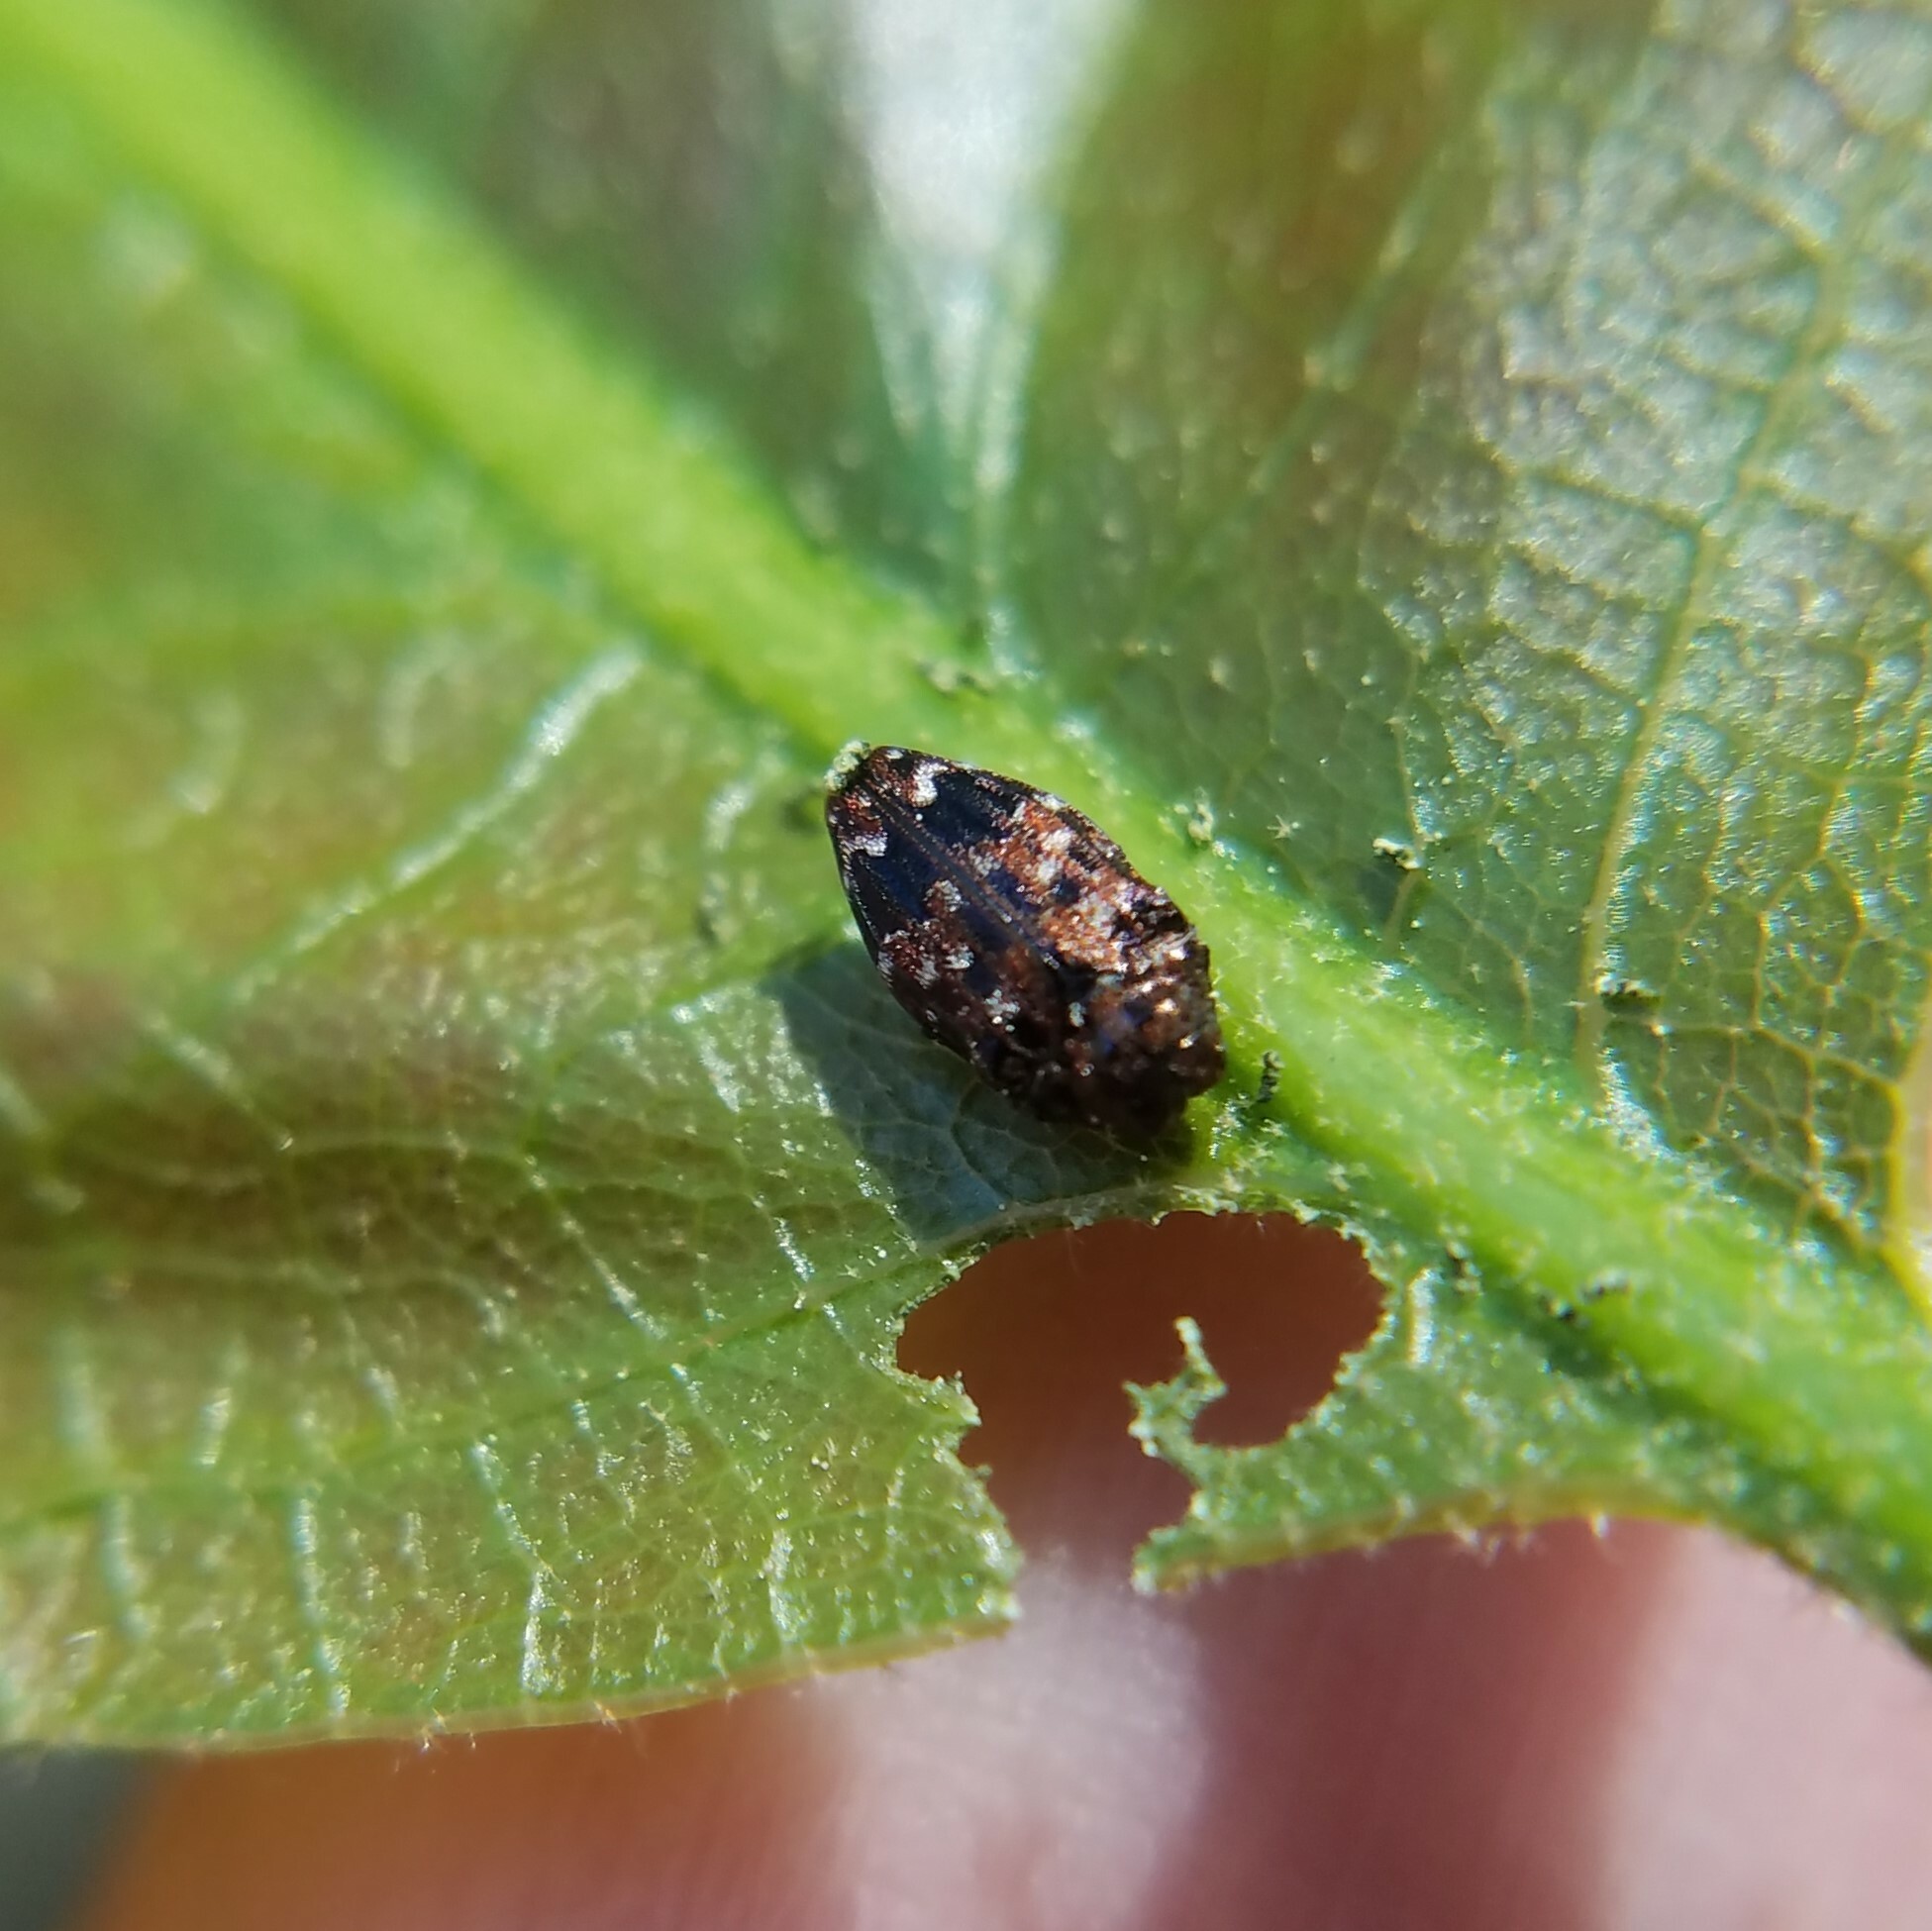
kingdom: Animalia
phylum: Arthropoda
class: Insecta
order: Coleoptera
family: Buprestidae
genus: Brachys
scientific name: Brachys ovatus
